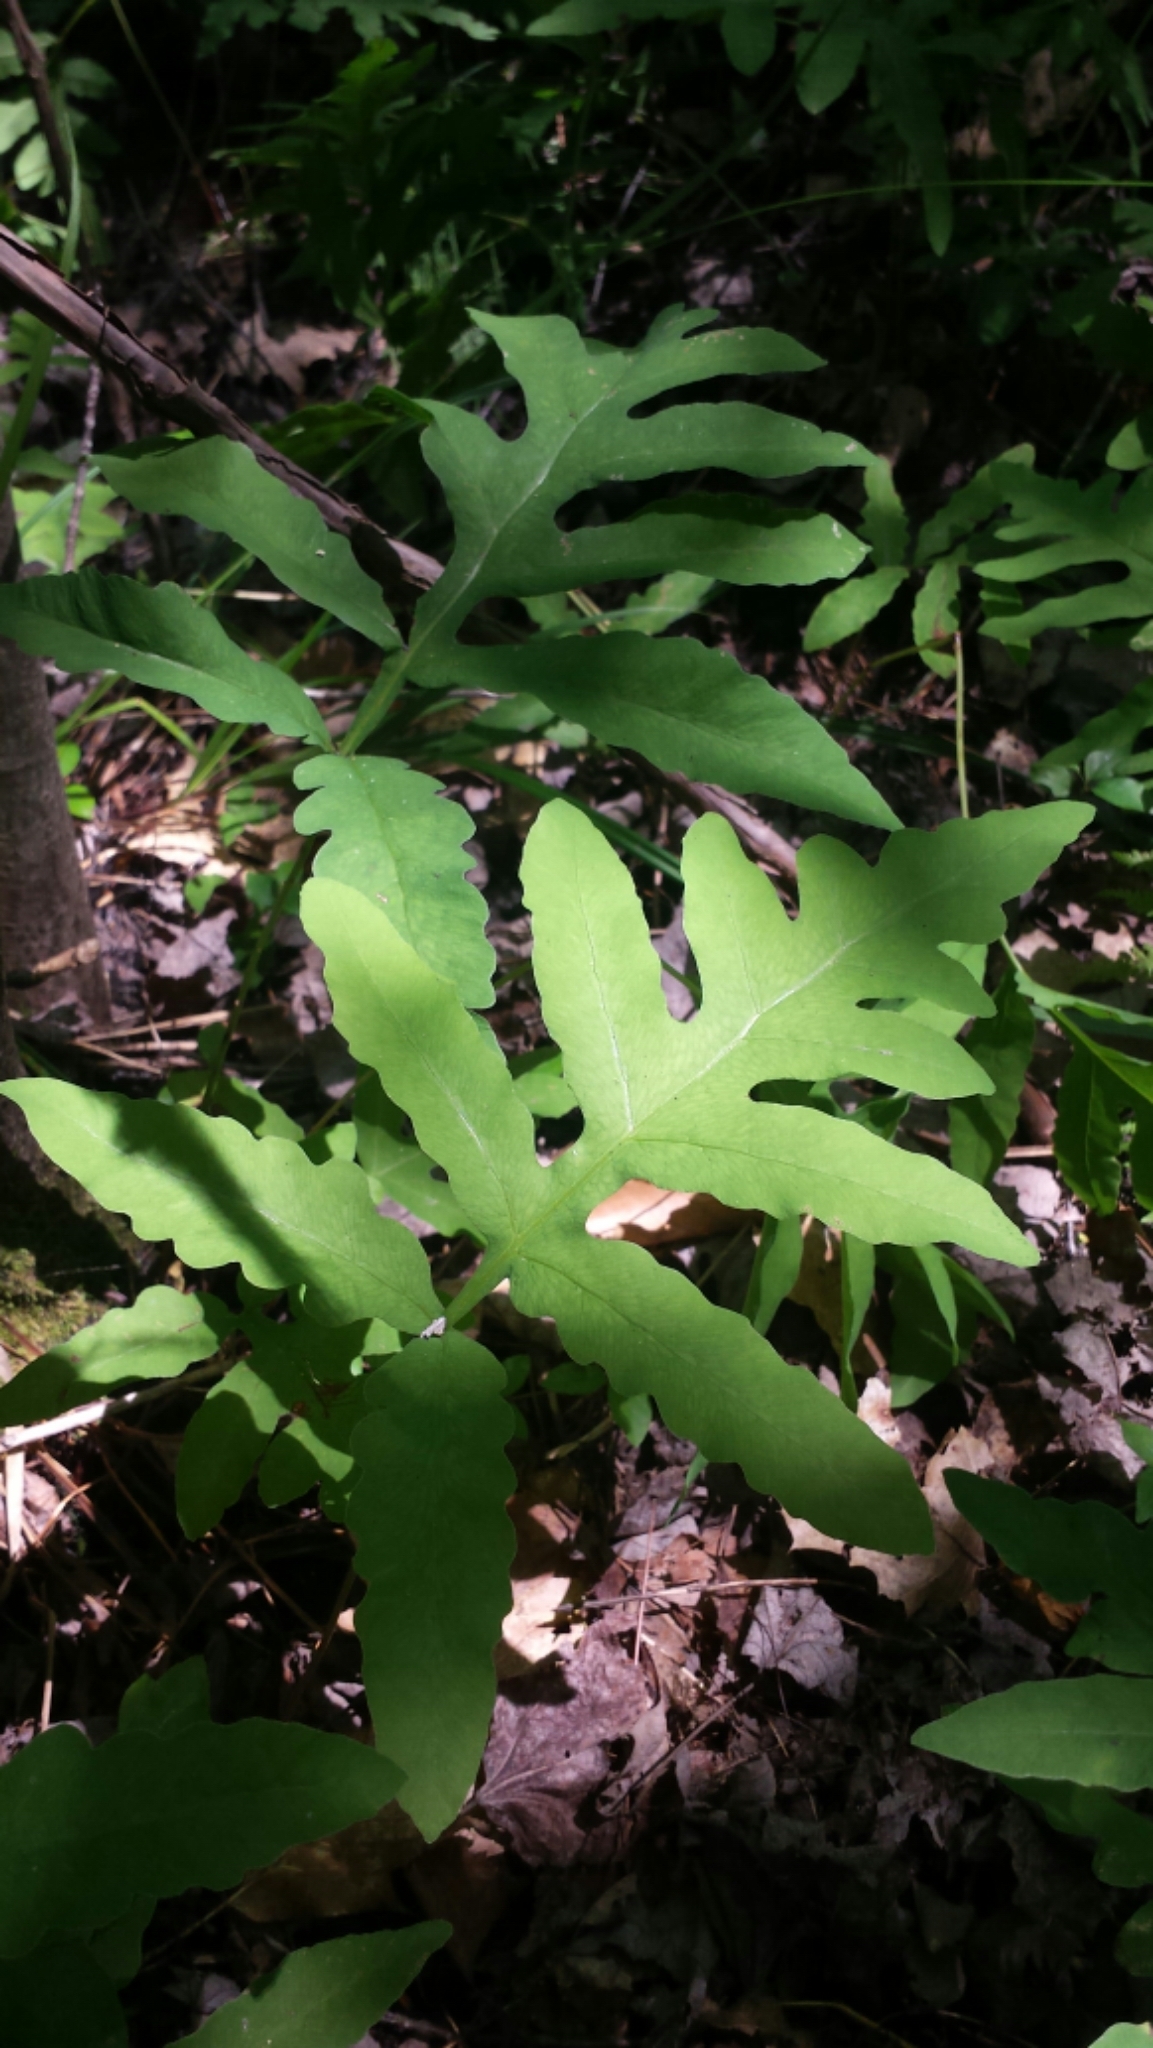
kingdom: Plantae
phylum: Tracheophyta
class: Polypodiopsida
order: Polypodiales
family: Onocleaceae
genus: Onoclea
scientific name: Onoclea sensibilis
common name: Sensitive fern
